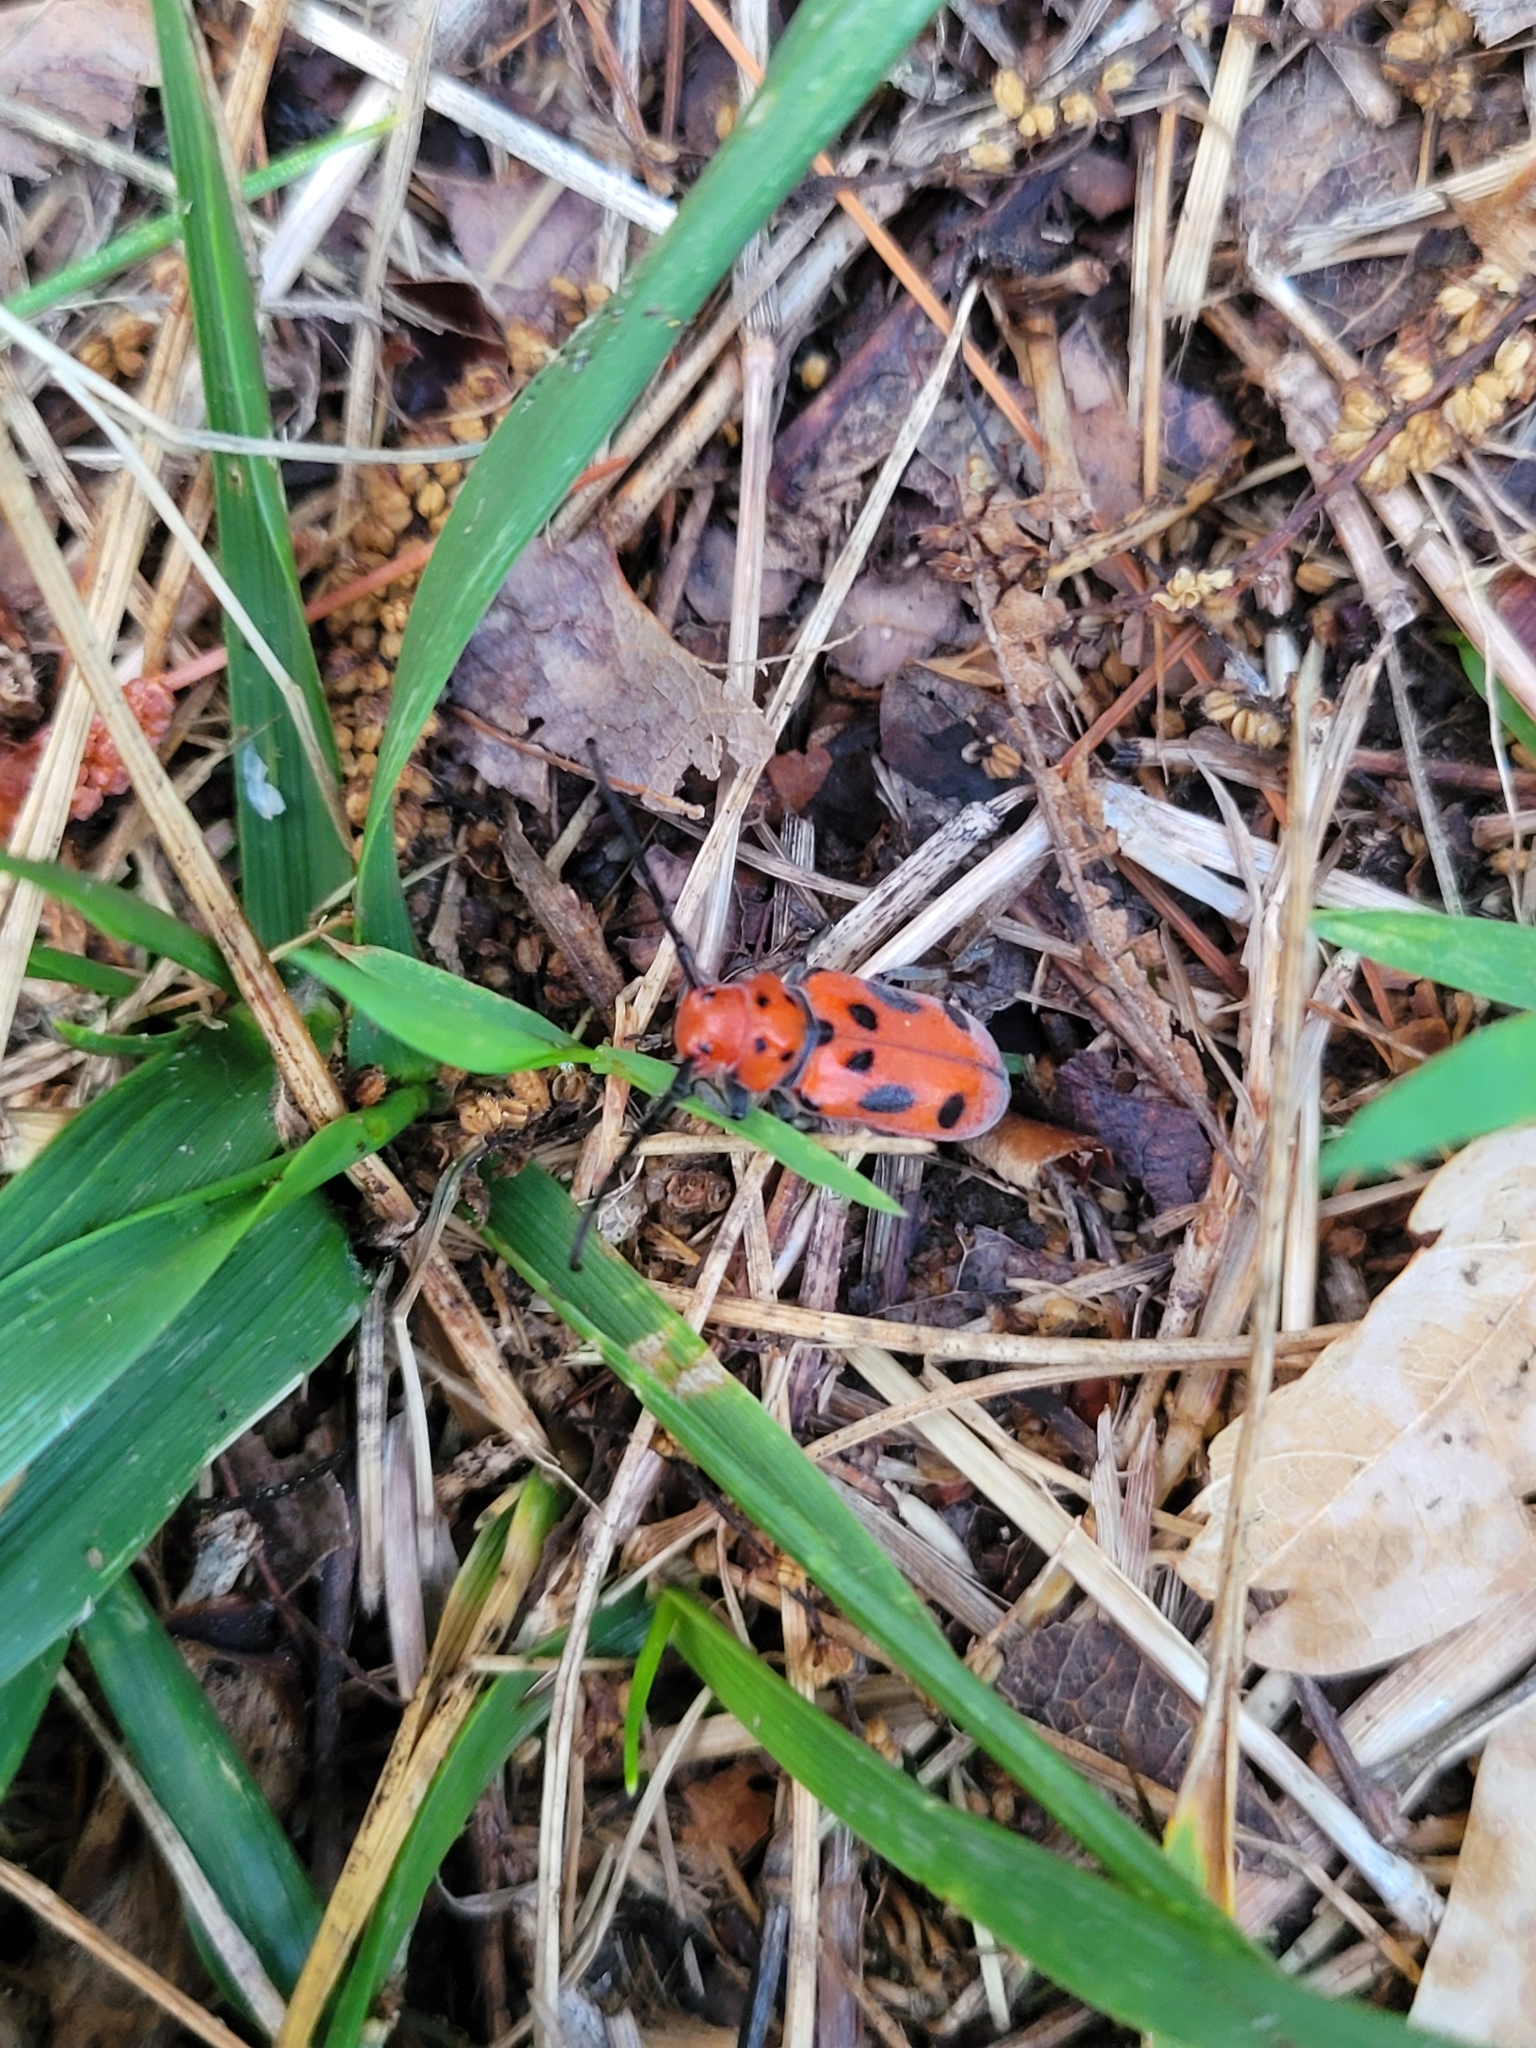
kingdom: Animalia
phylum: Arthropoda
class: Insecta
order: Coleoptera
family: Cerambycidae
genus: Tetraopes
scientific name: Tetraopes tetrophthalmus
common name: Red milkweed beetle
